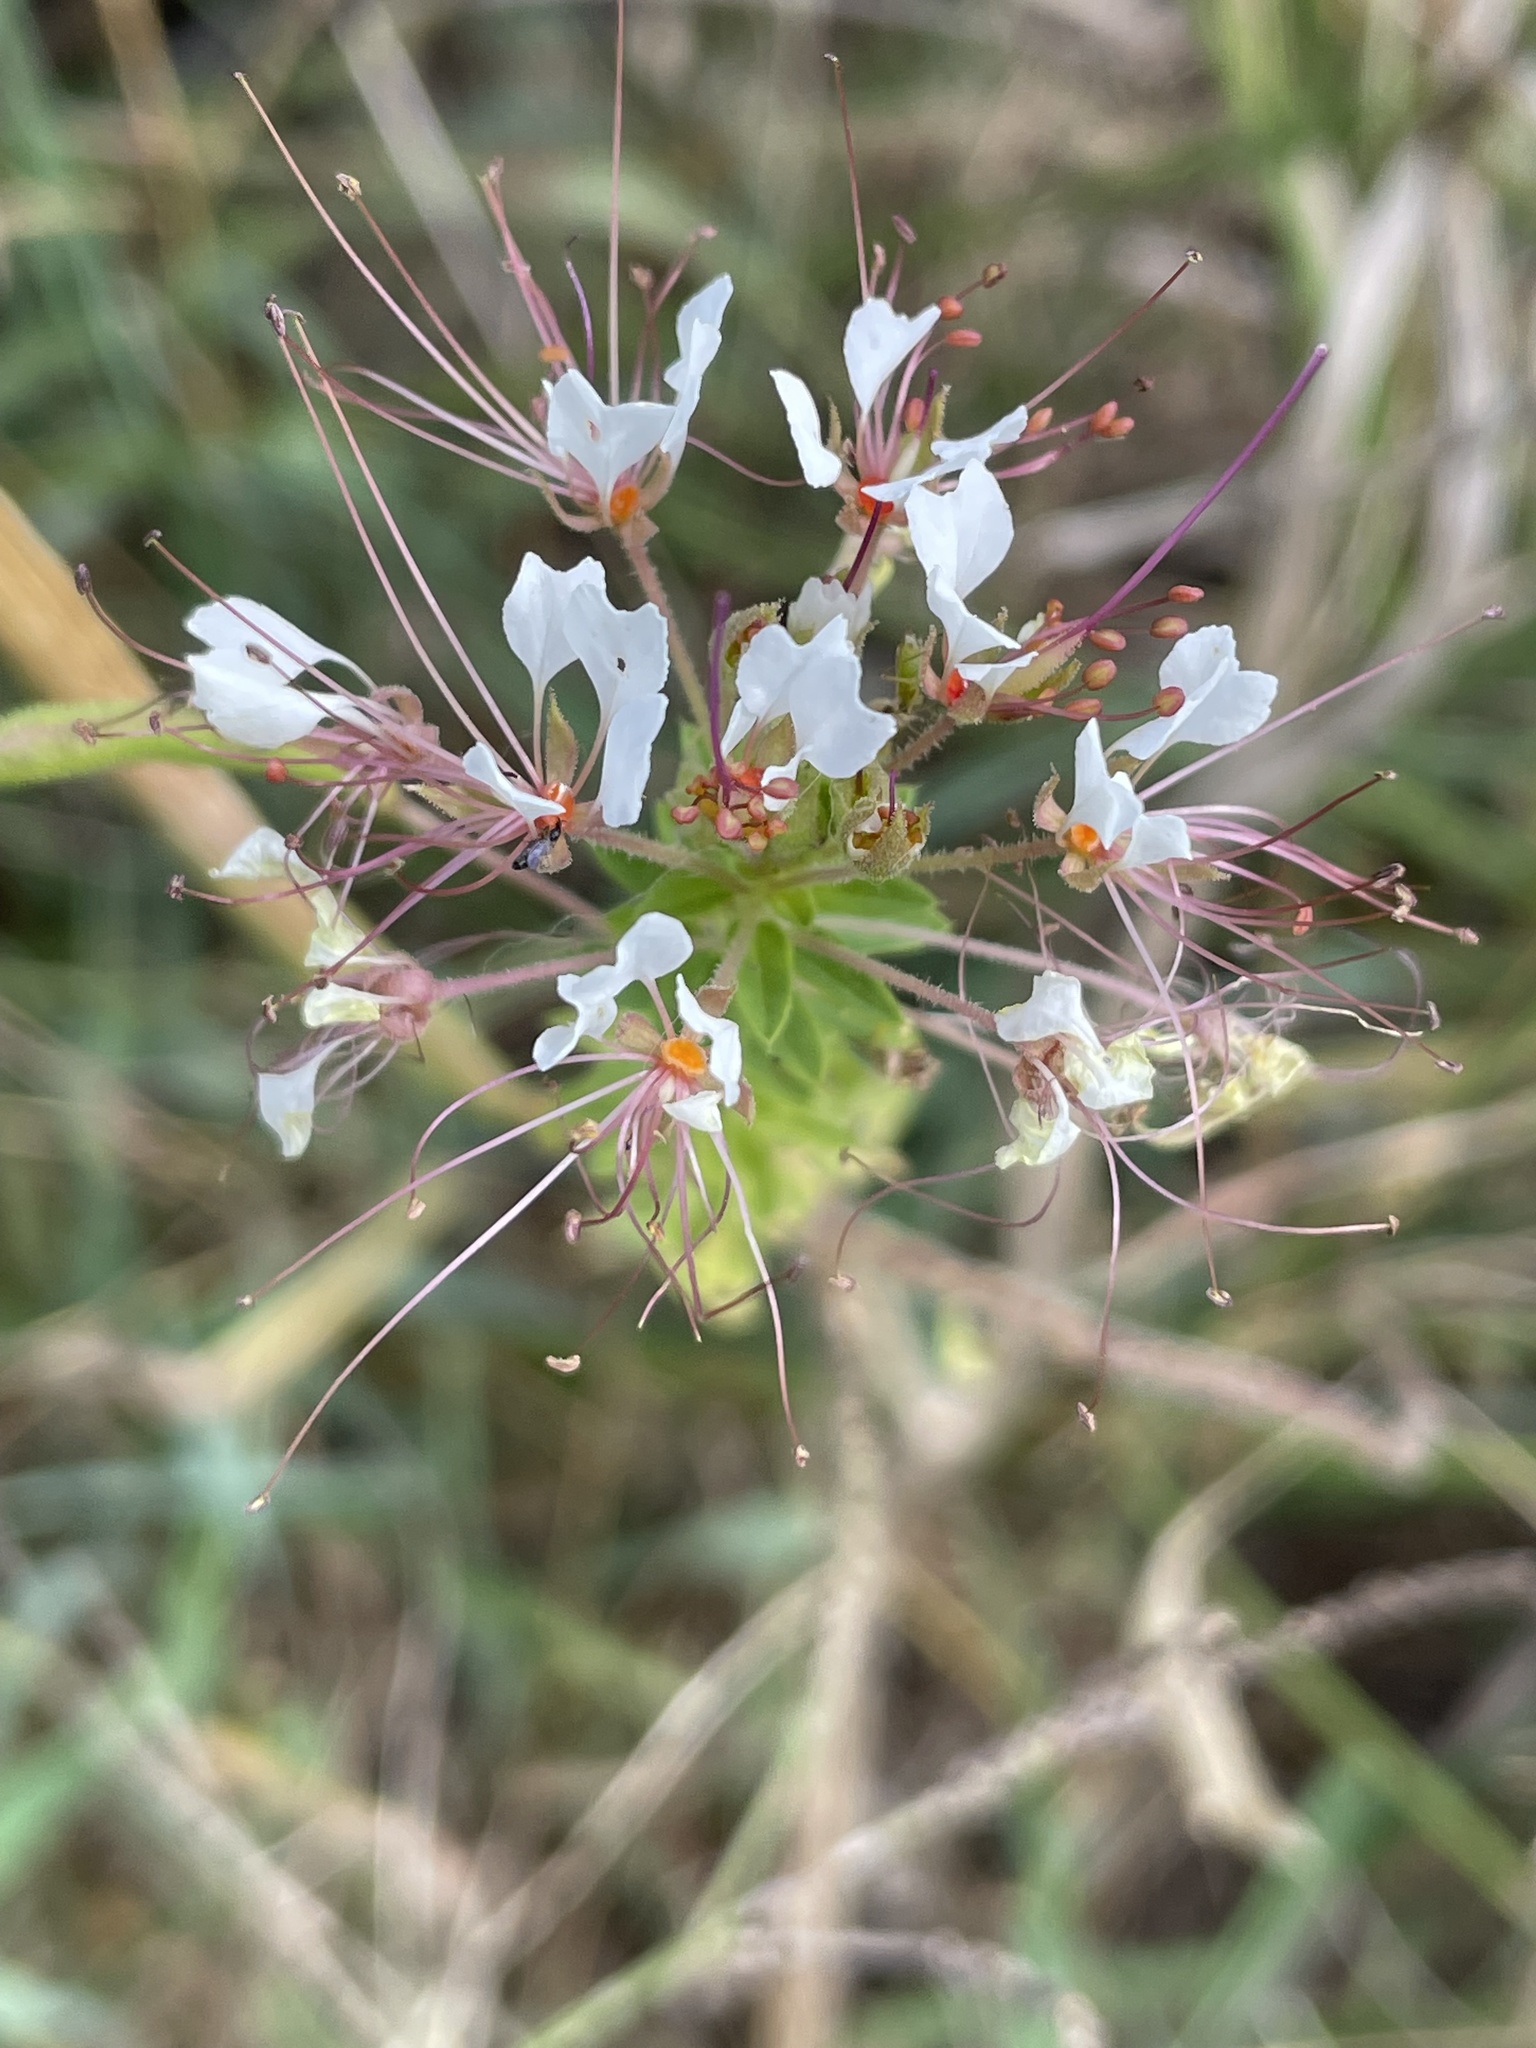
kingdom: Plantae
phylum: Tracheophyta
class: Magnoliopsida
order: Brassicales
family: Cleomaceae
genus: Polanisia
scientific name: Polanisia dodecandra
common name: Clammyweed
